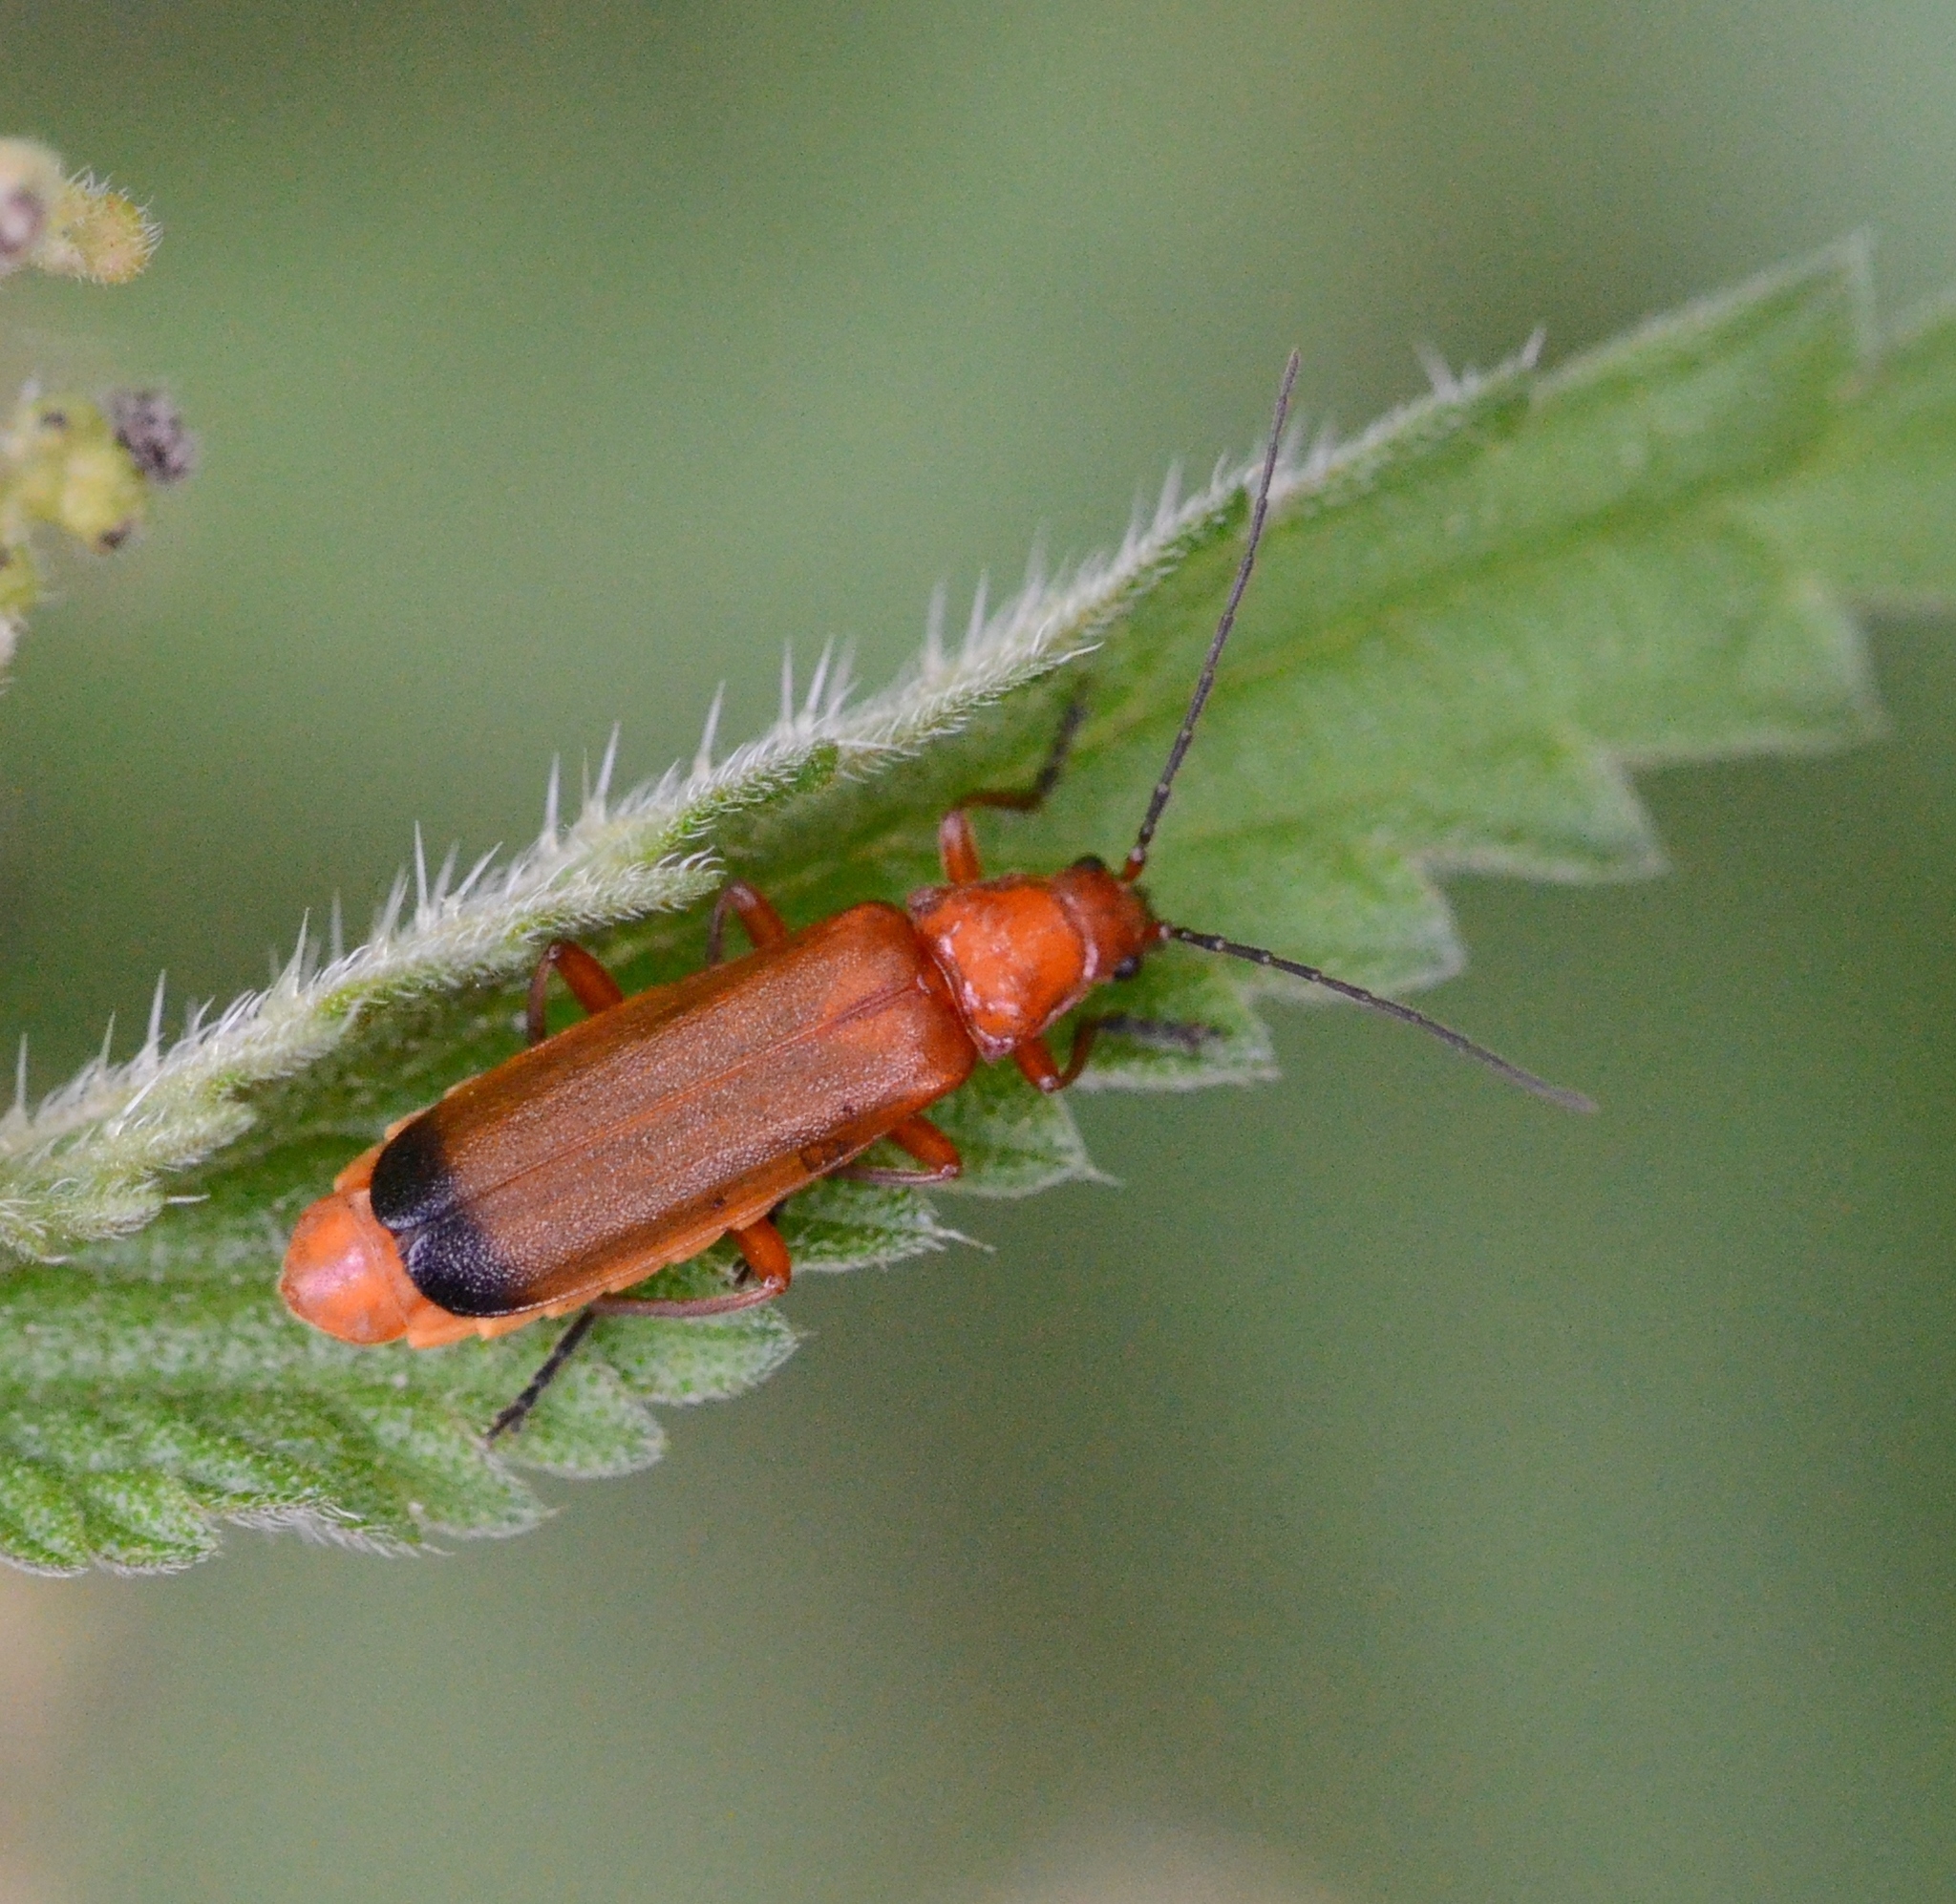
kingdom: Animalia
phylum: Arthropoda
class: Insecta
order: Coleoptera
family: Cantharidae
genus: Rhagonycha
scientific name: Rhagonycha fulva
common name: Common red soldier beetle
